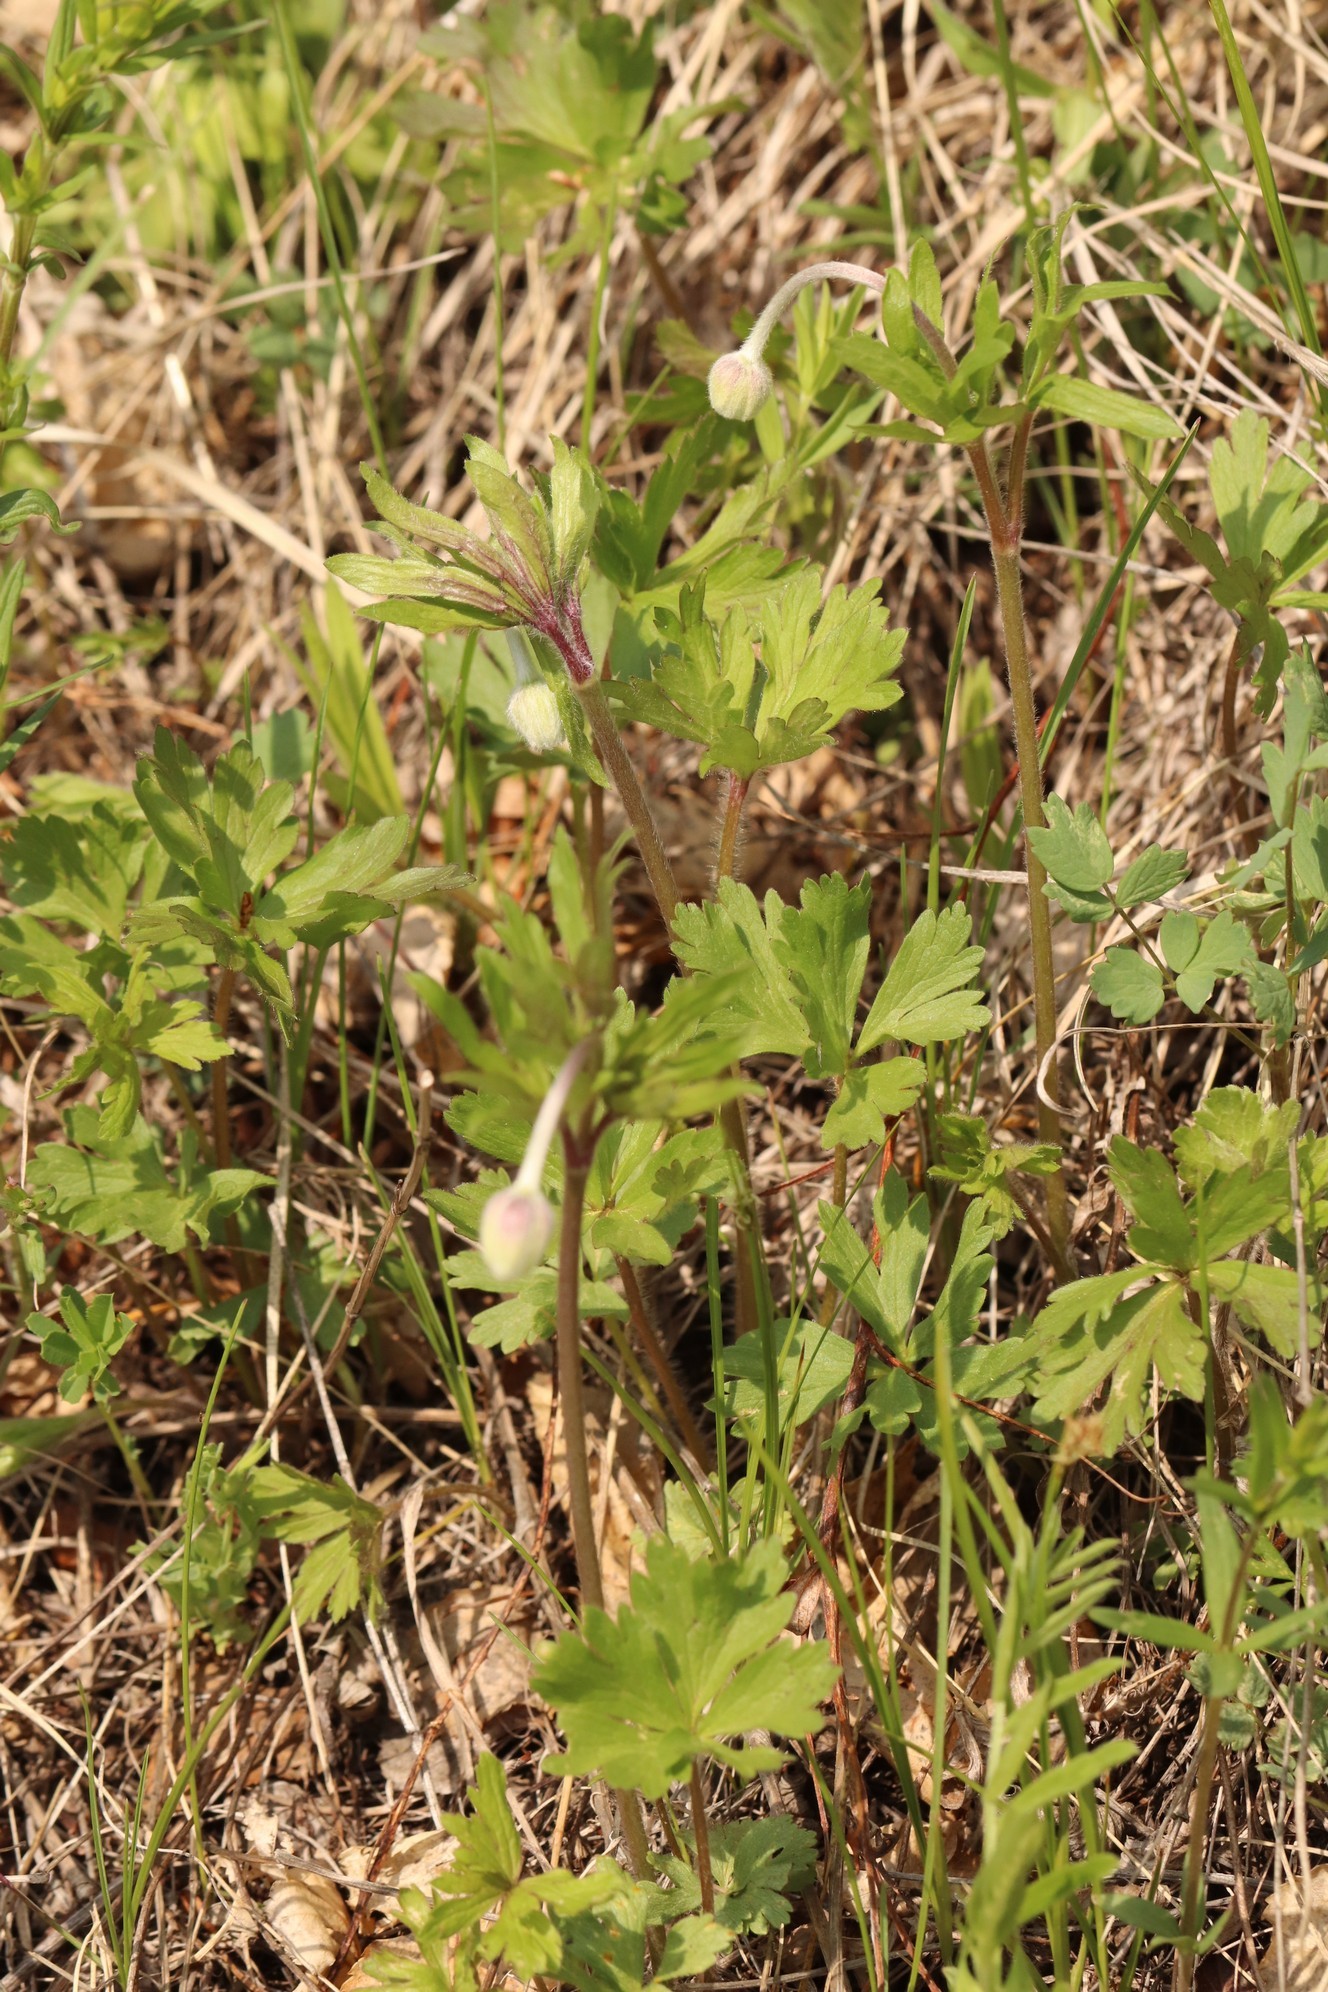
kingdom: Plantae
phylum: Tracheophyta
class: Magnoliopsida
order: Ranunculales
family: Ranunculaceae
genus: Anemone
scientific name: Anemone sylvestris
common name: Snowdrop anemone
